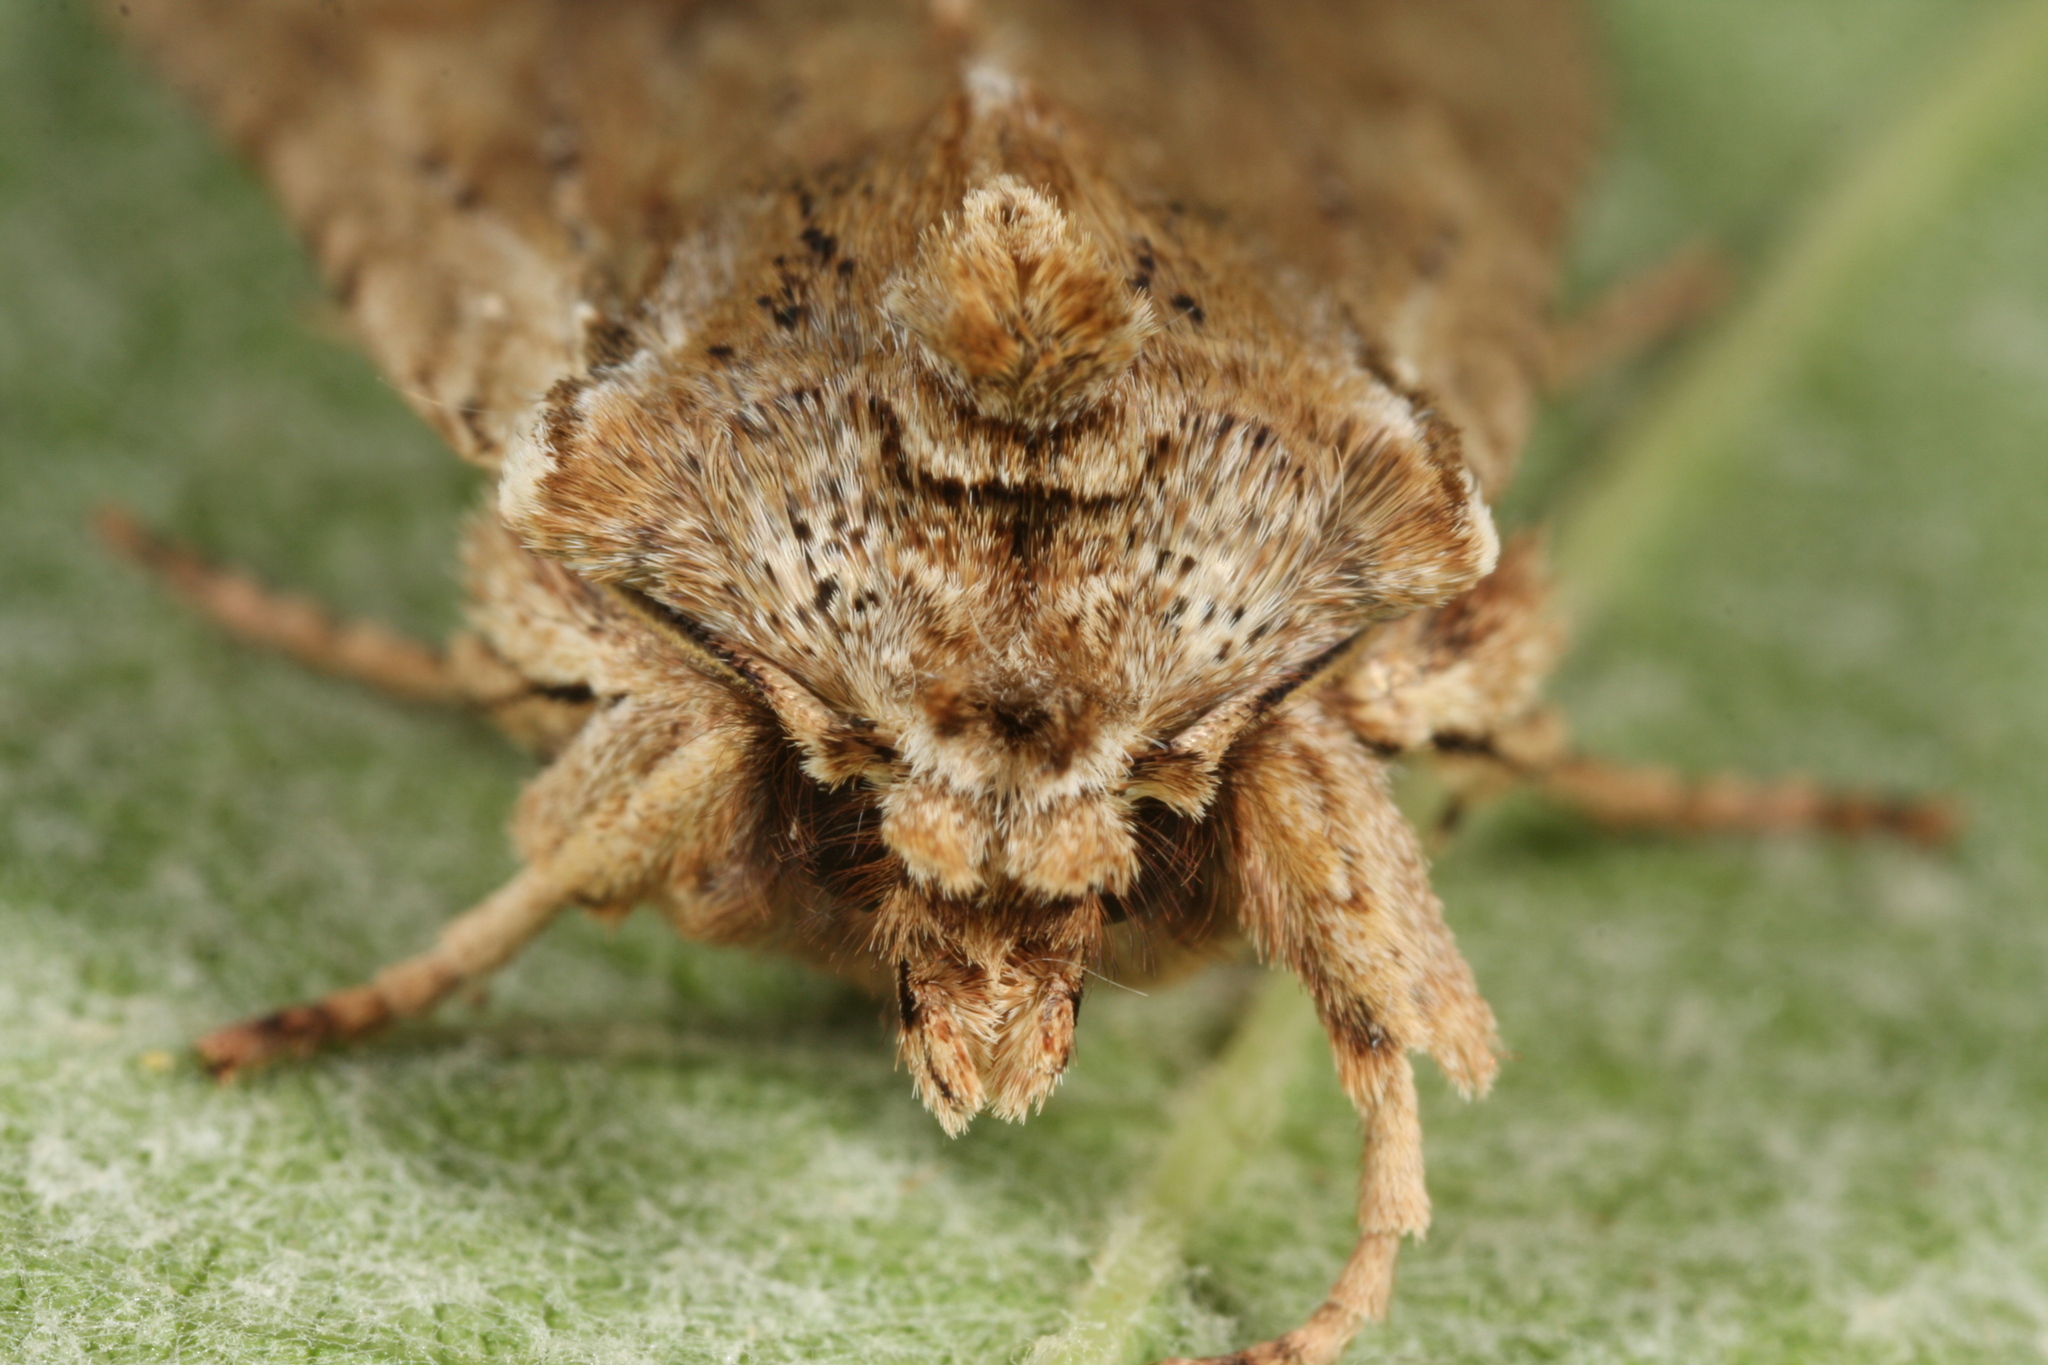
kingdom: Animalia
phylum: Arthropoda
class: Insecta
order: Lepidoptera
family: Noctuidae
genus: Lithophane
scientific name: Lithophane socia
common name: Pale pinion
